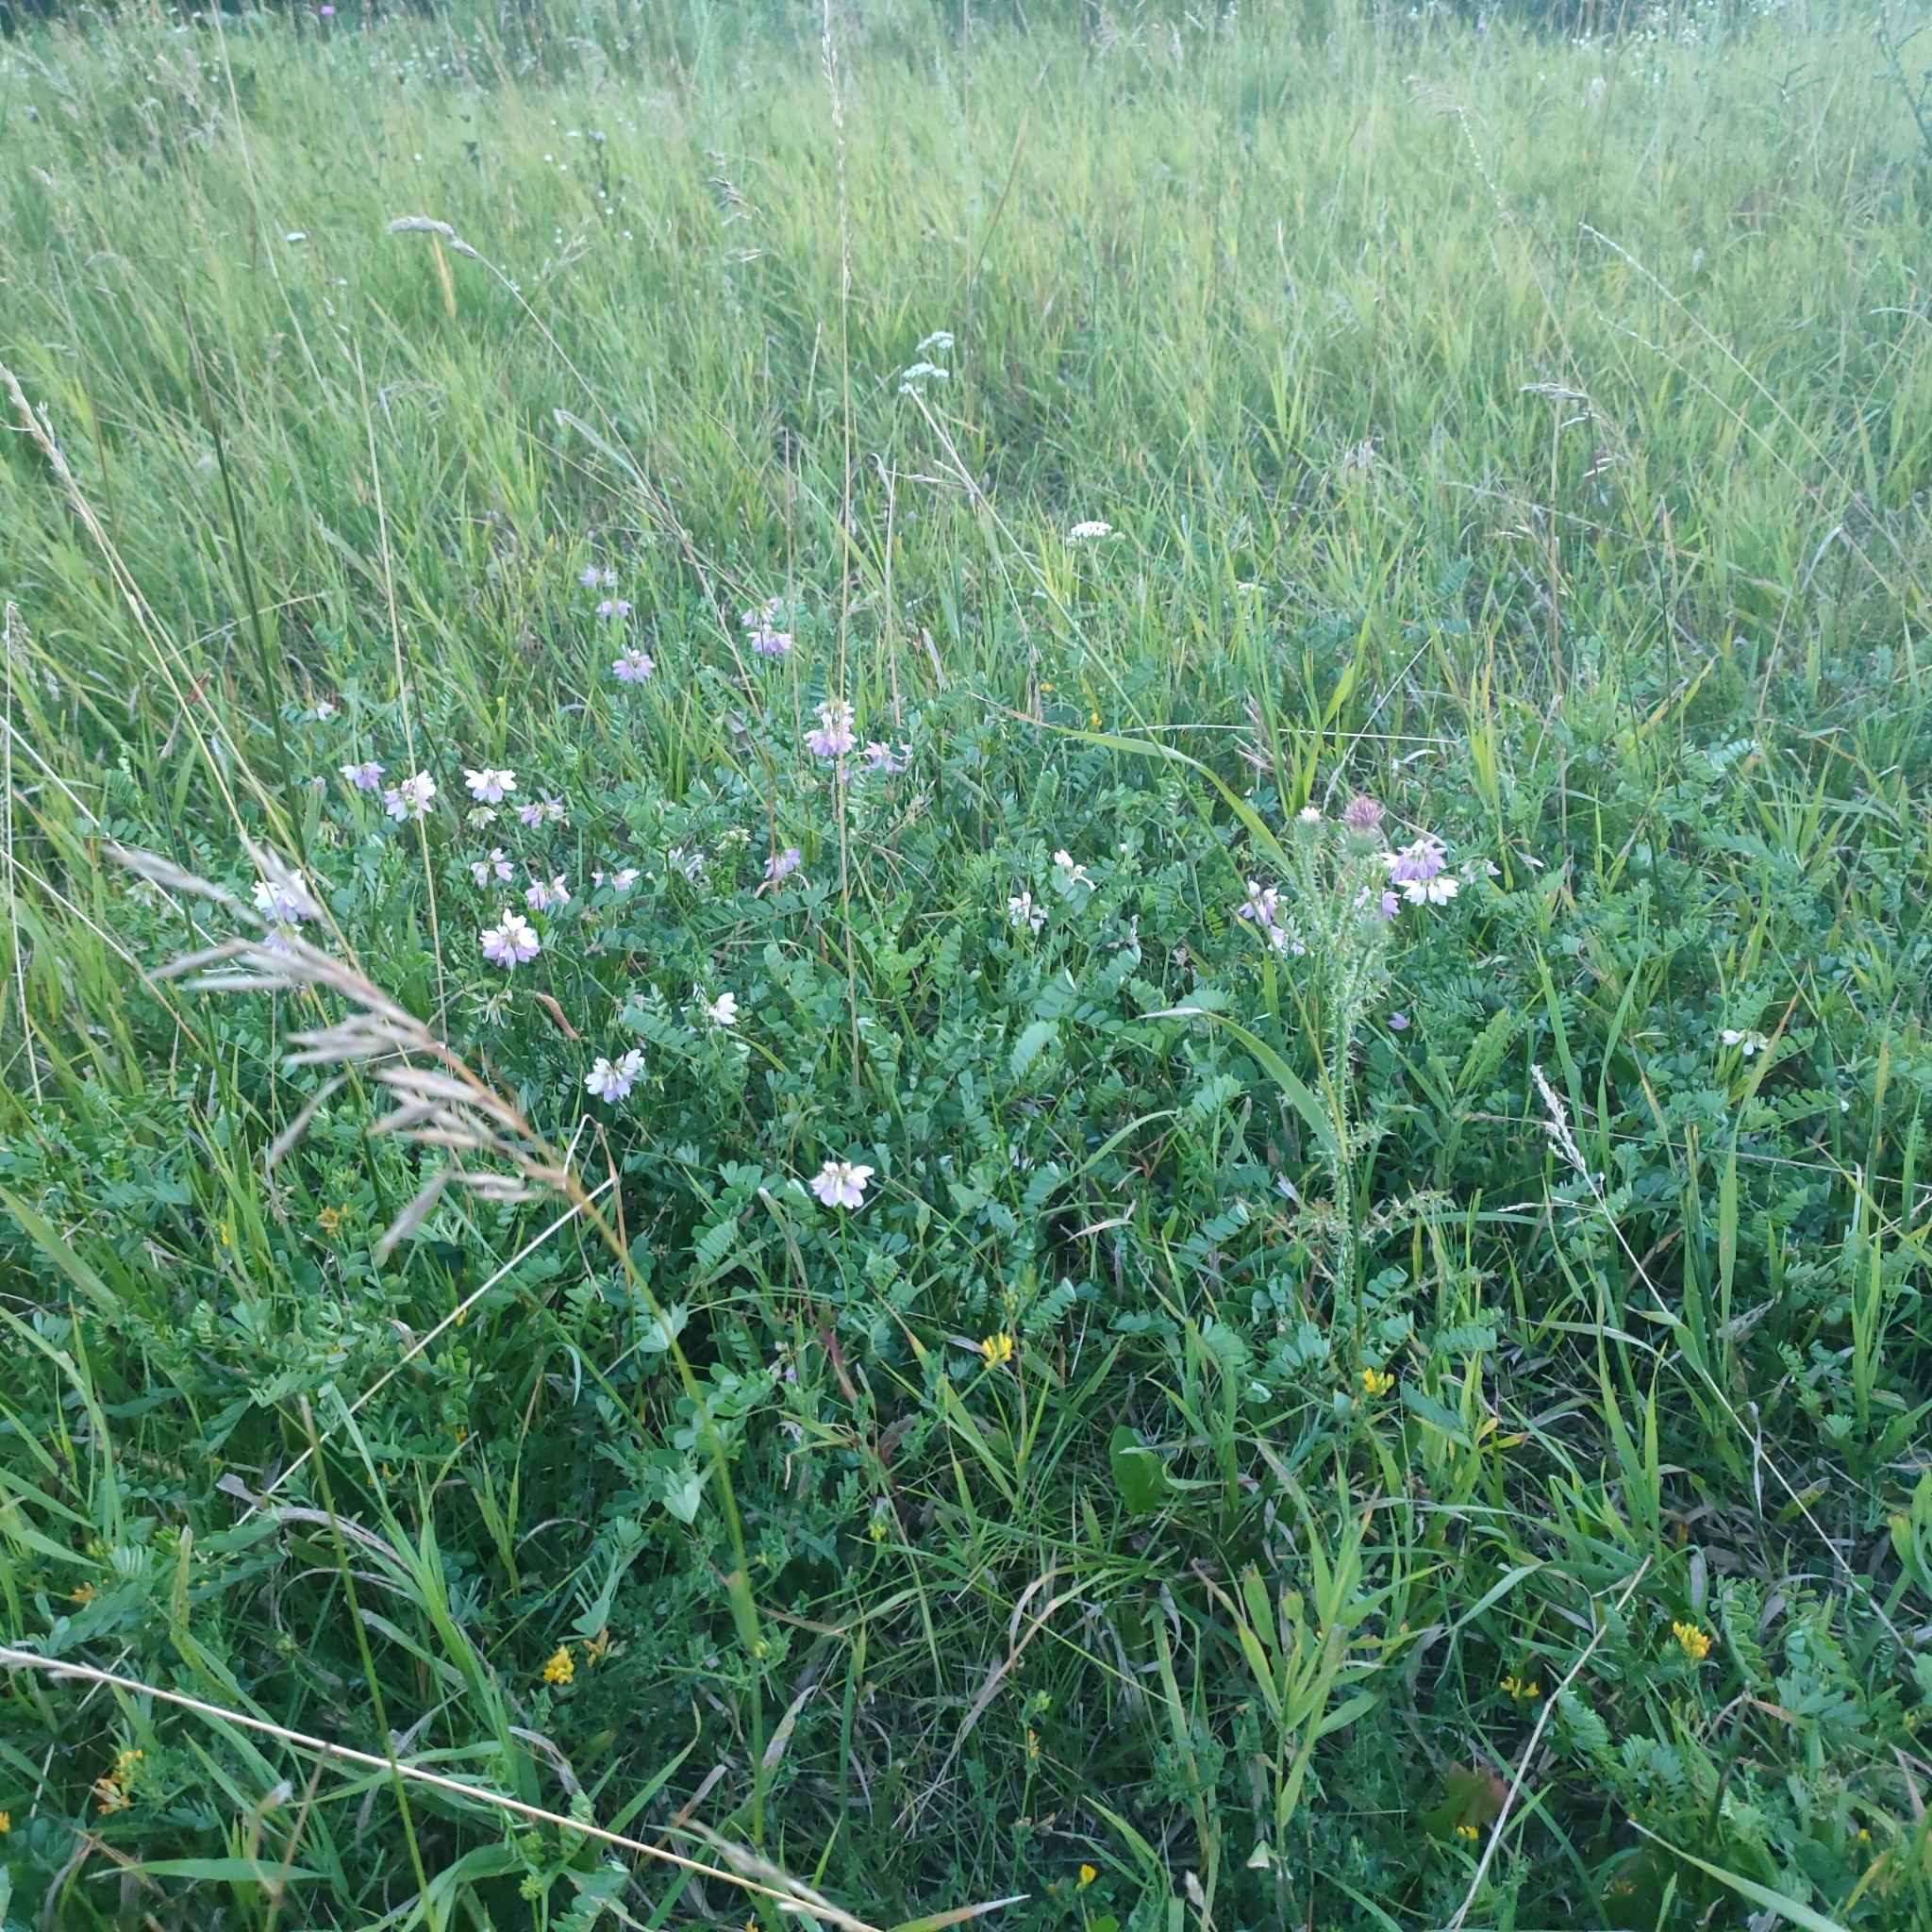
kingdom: Plantae
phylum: Tracheophyta
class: Magnoliopsida
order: Fabales
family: Fabaceae
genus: Coronilla
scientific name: Coronilla varia
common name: Crownvetch
